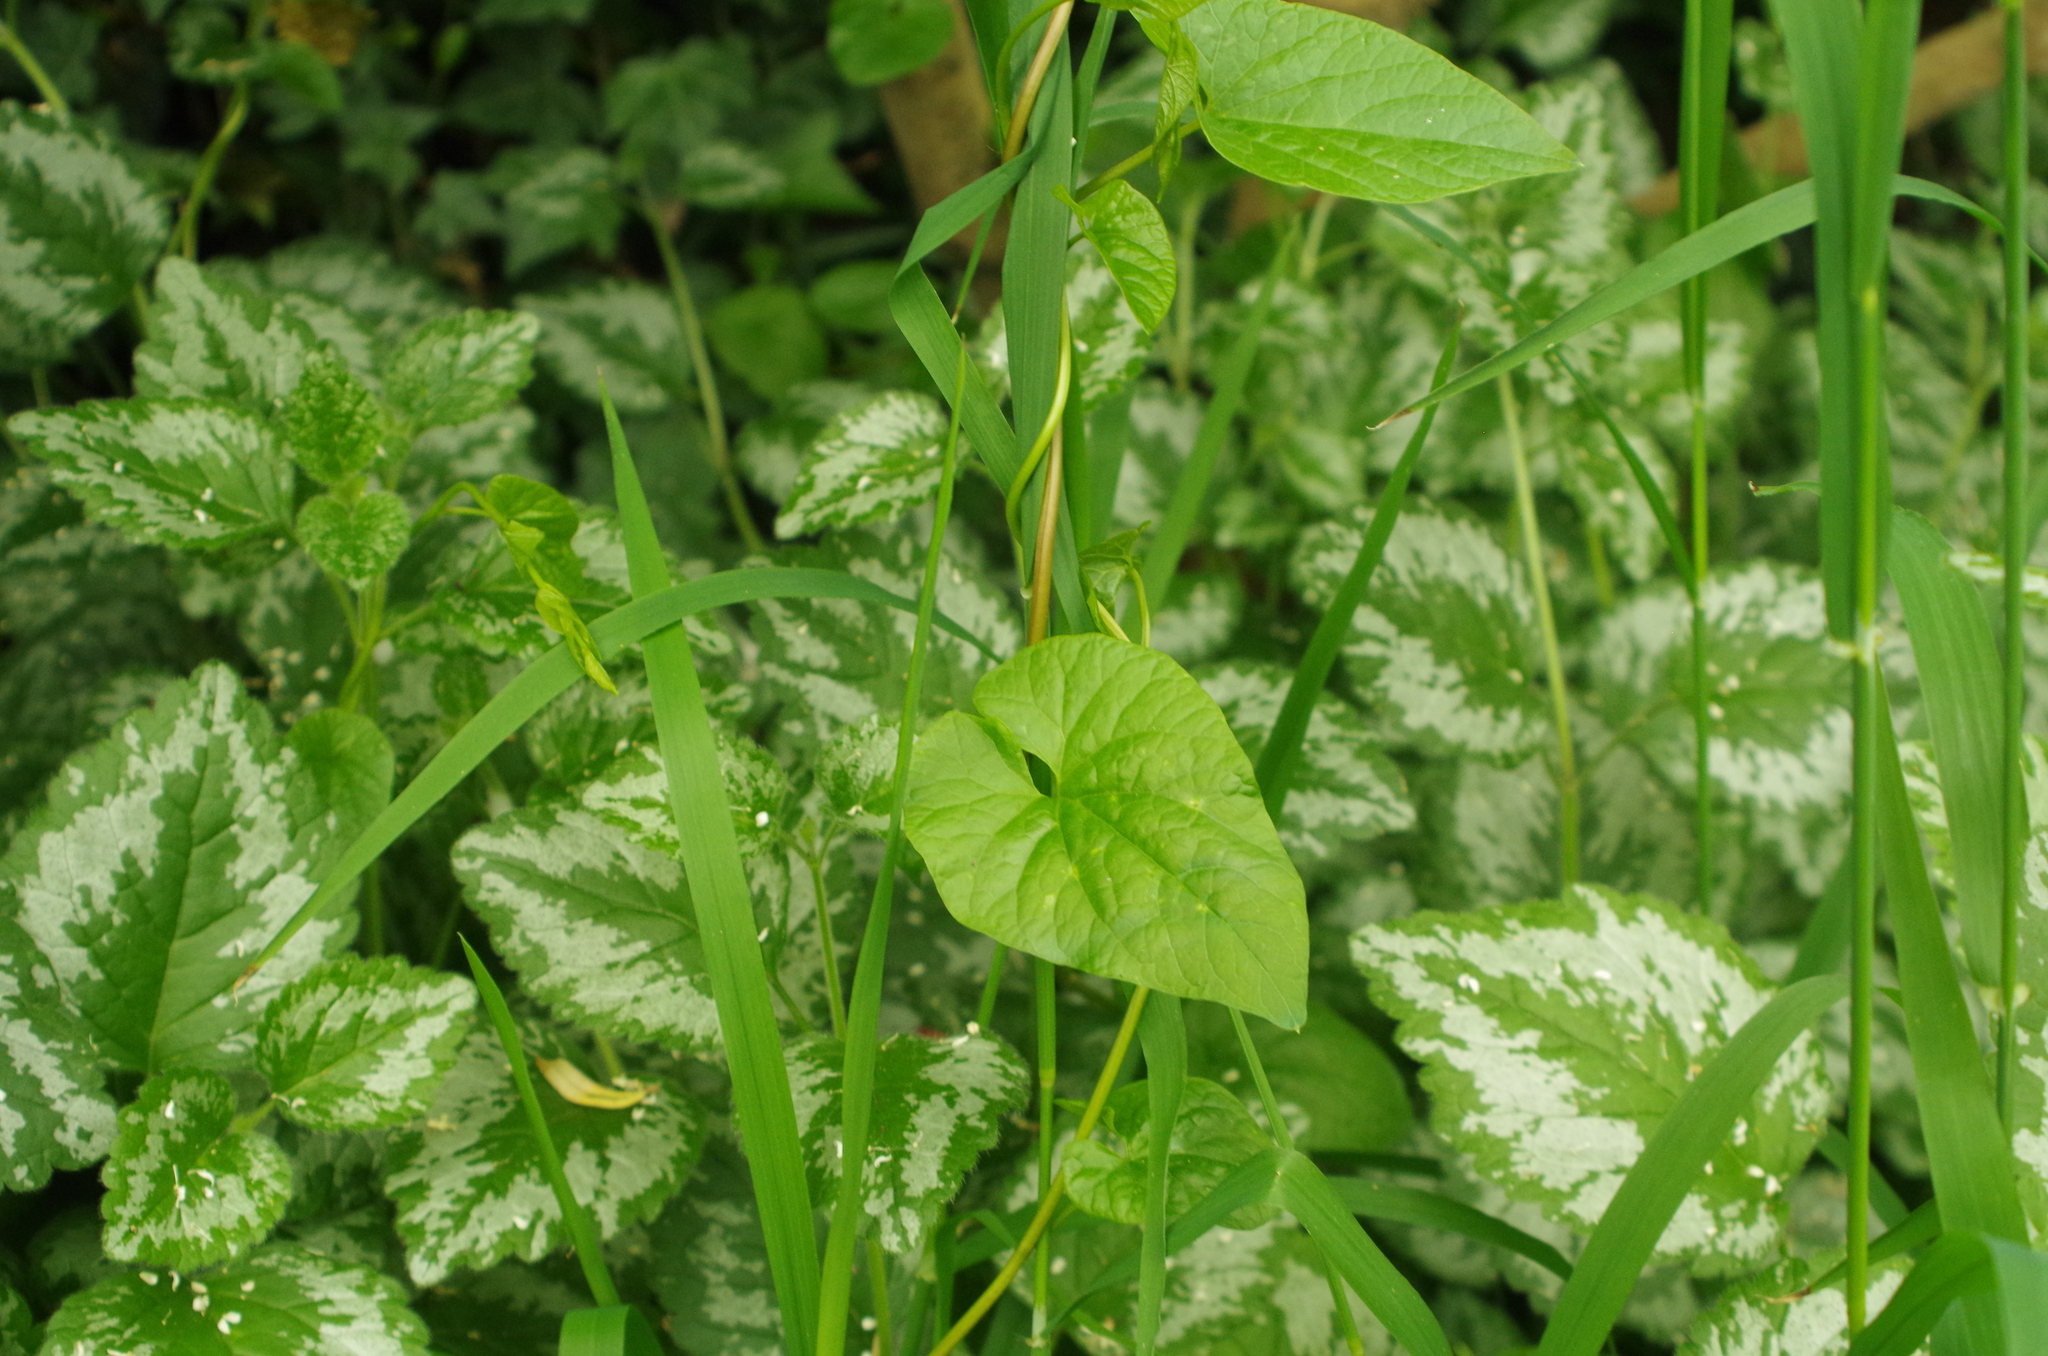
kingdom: Plantae
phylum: Tracheophyta
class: Magnoliopsida
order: Solanales
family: Convolvulaceae
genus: Calystegia
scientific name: Calystegia silvatica
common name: Large bindweed
